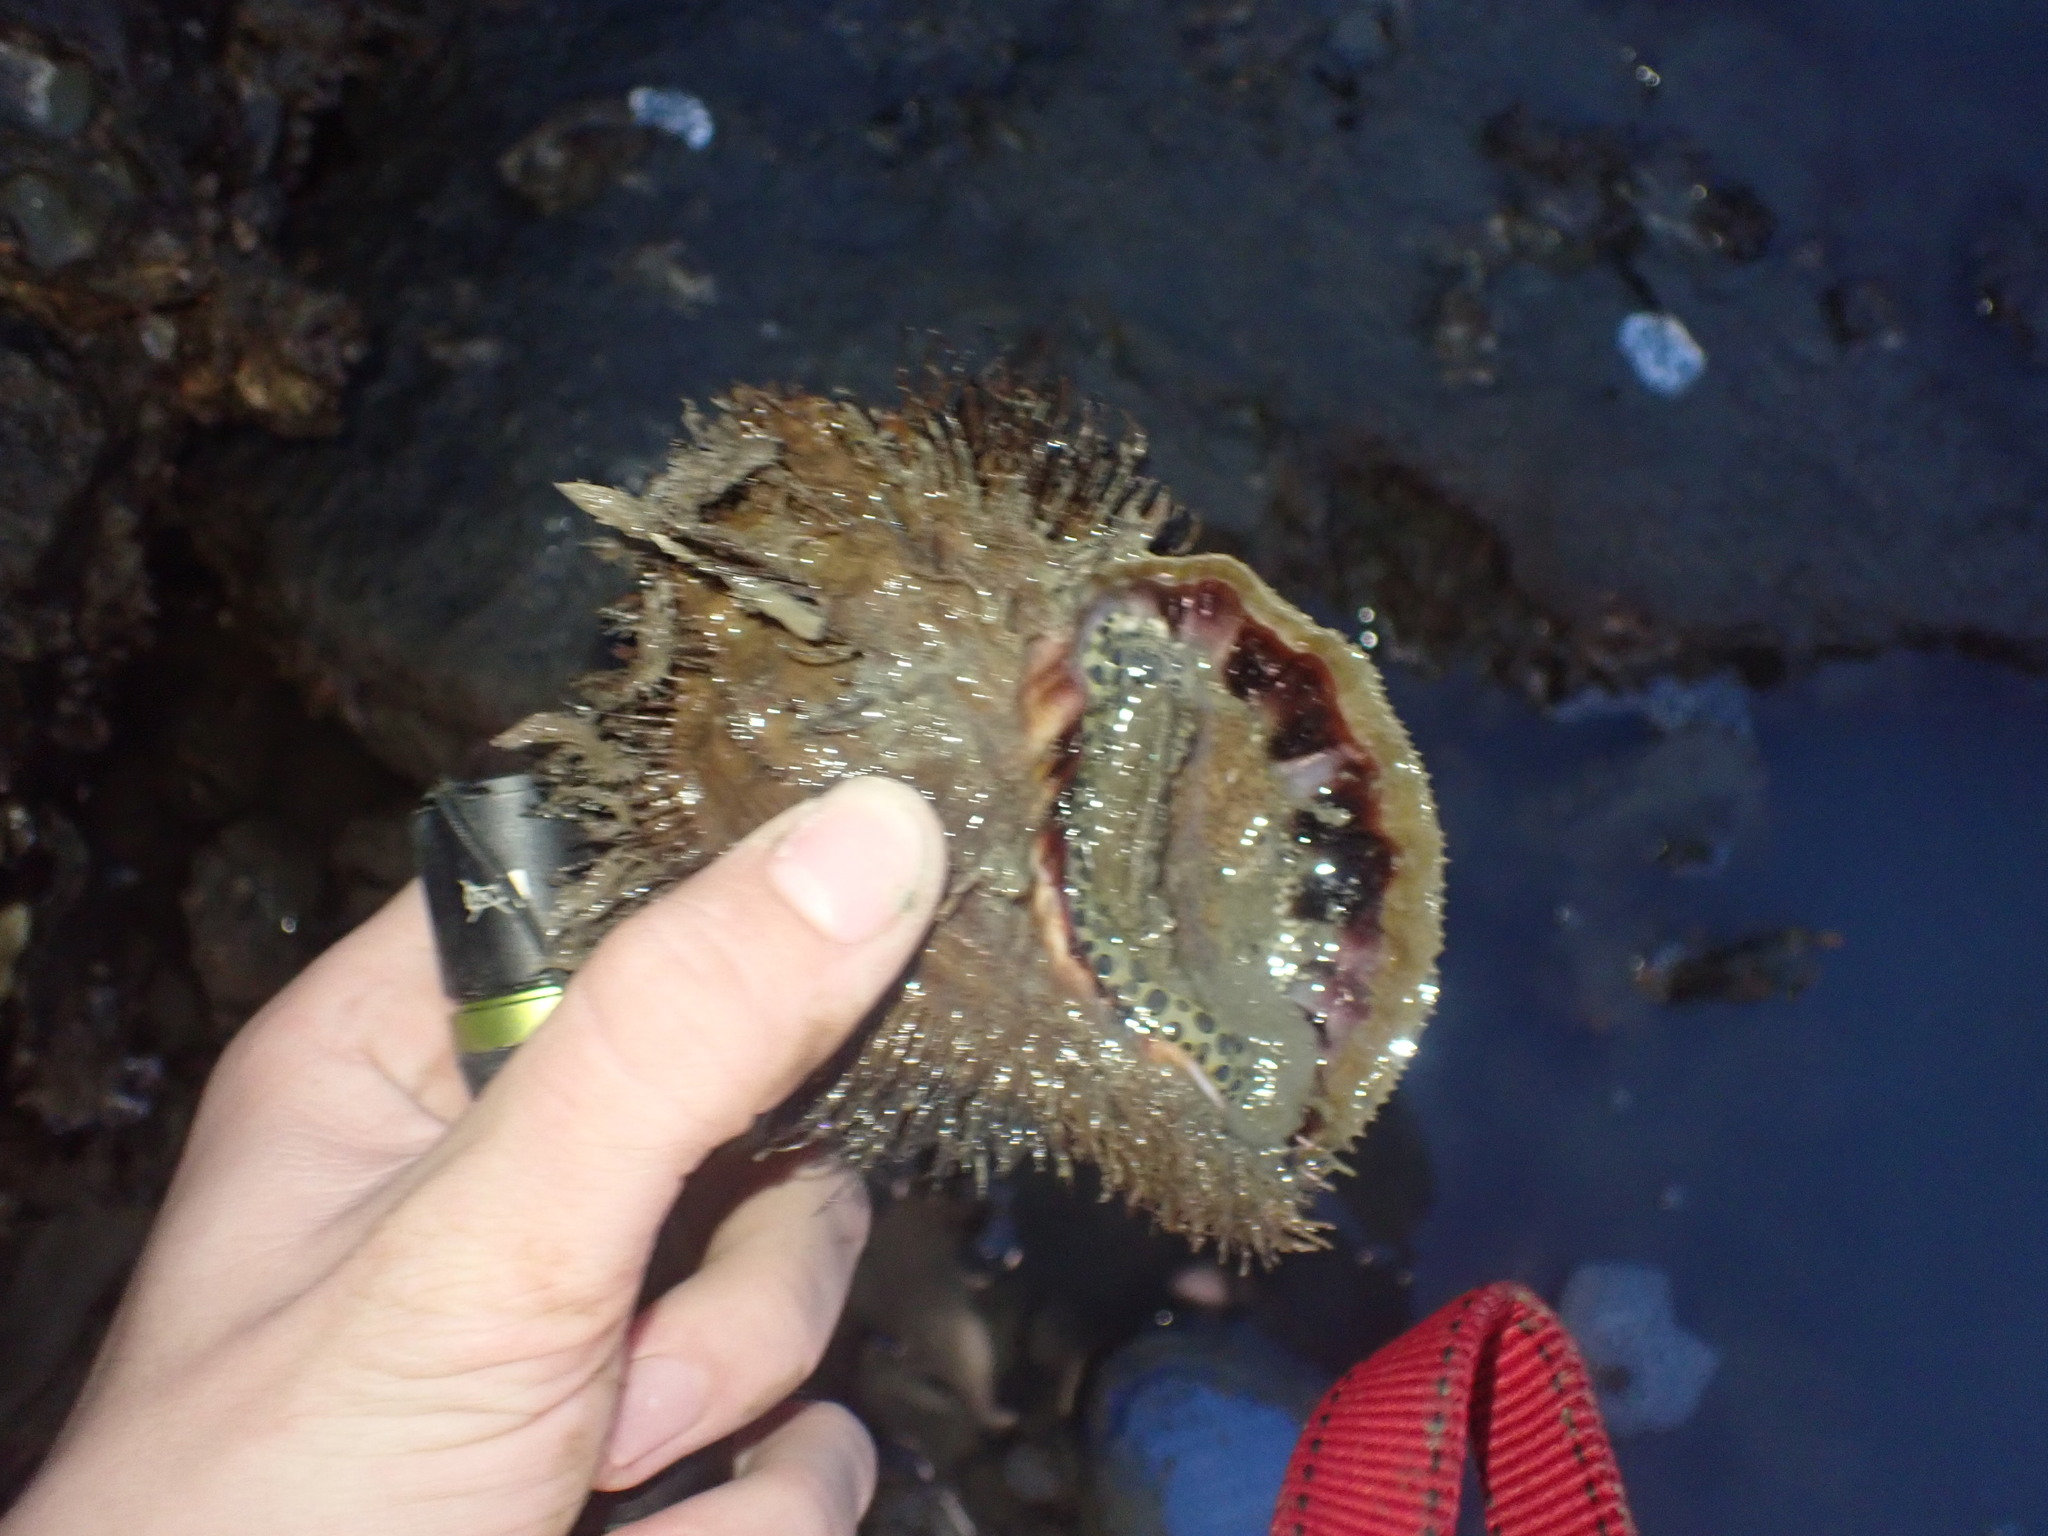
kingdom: Animalia
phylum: Mollusca
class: Gastropoda
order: Littorinimorpha
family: Cymatiidae
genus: Monoplex
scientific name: Monoplex parthenopeus
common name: Giant triton
